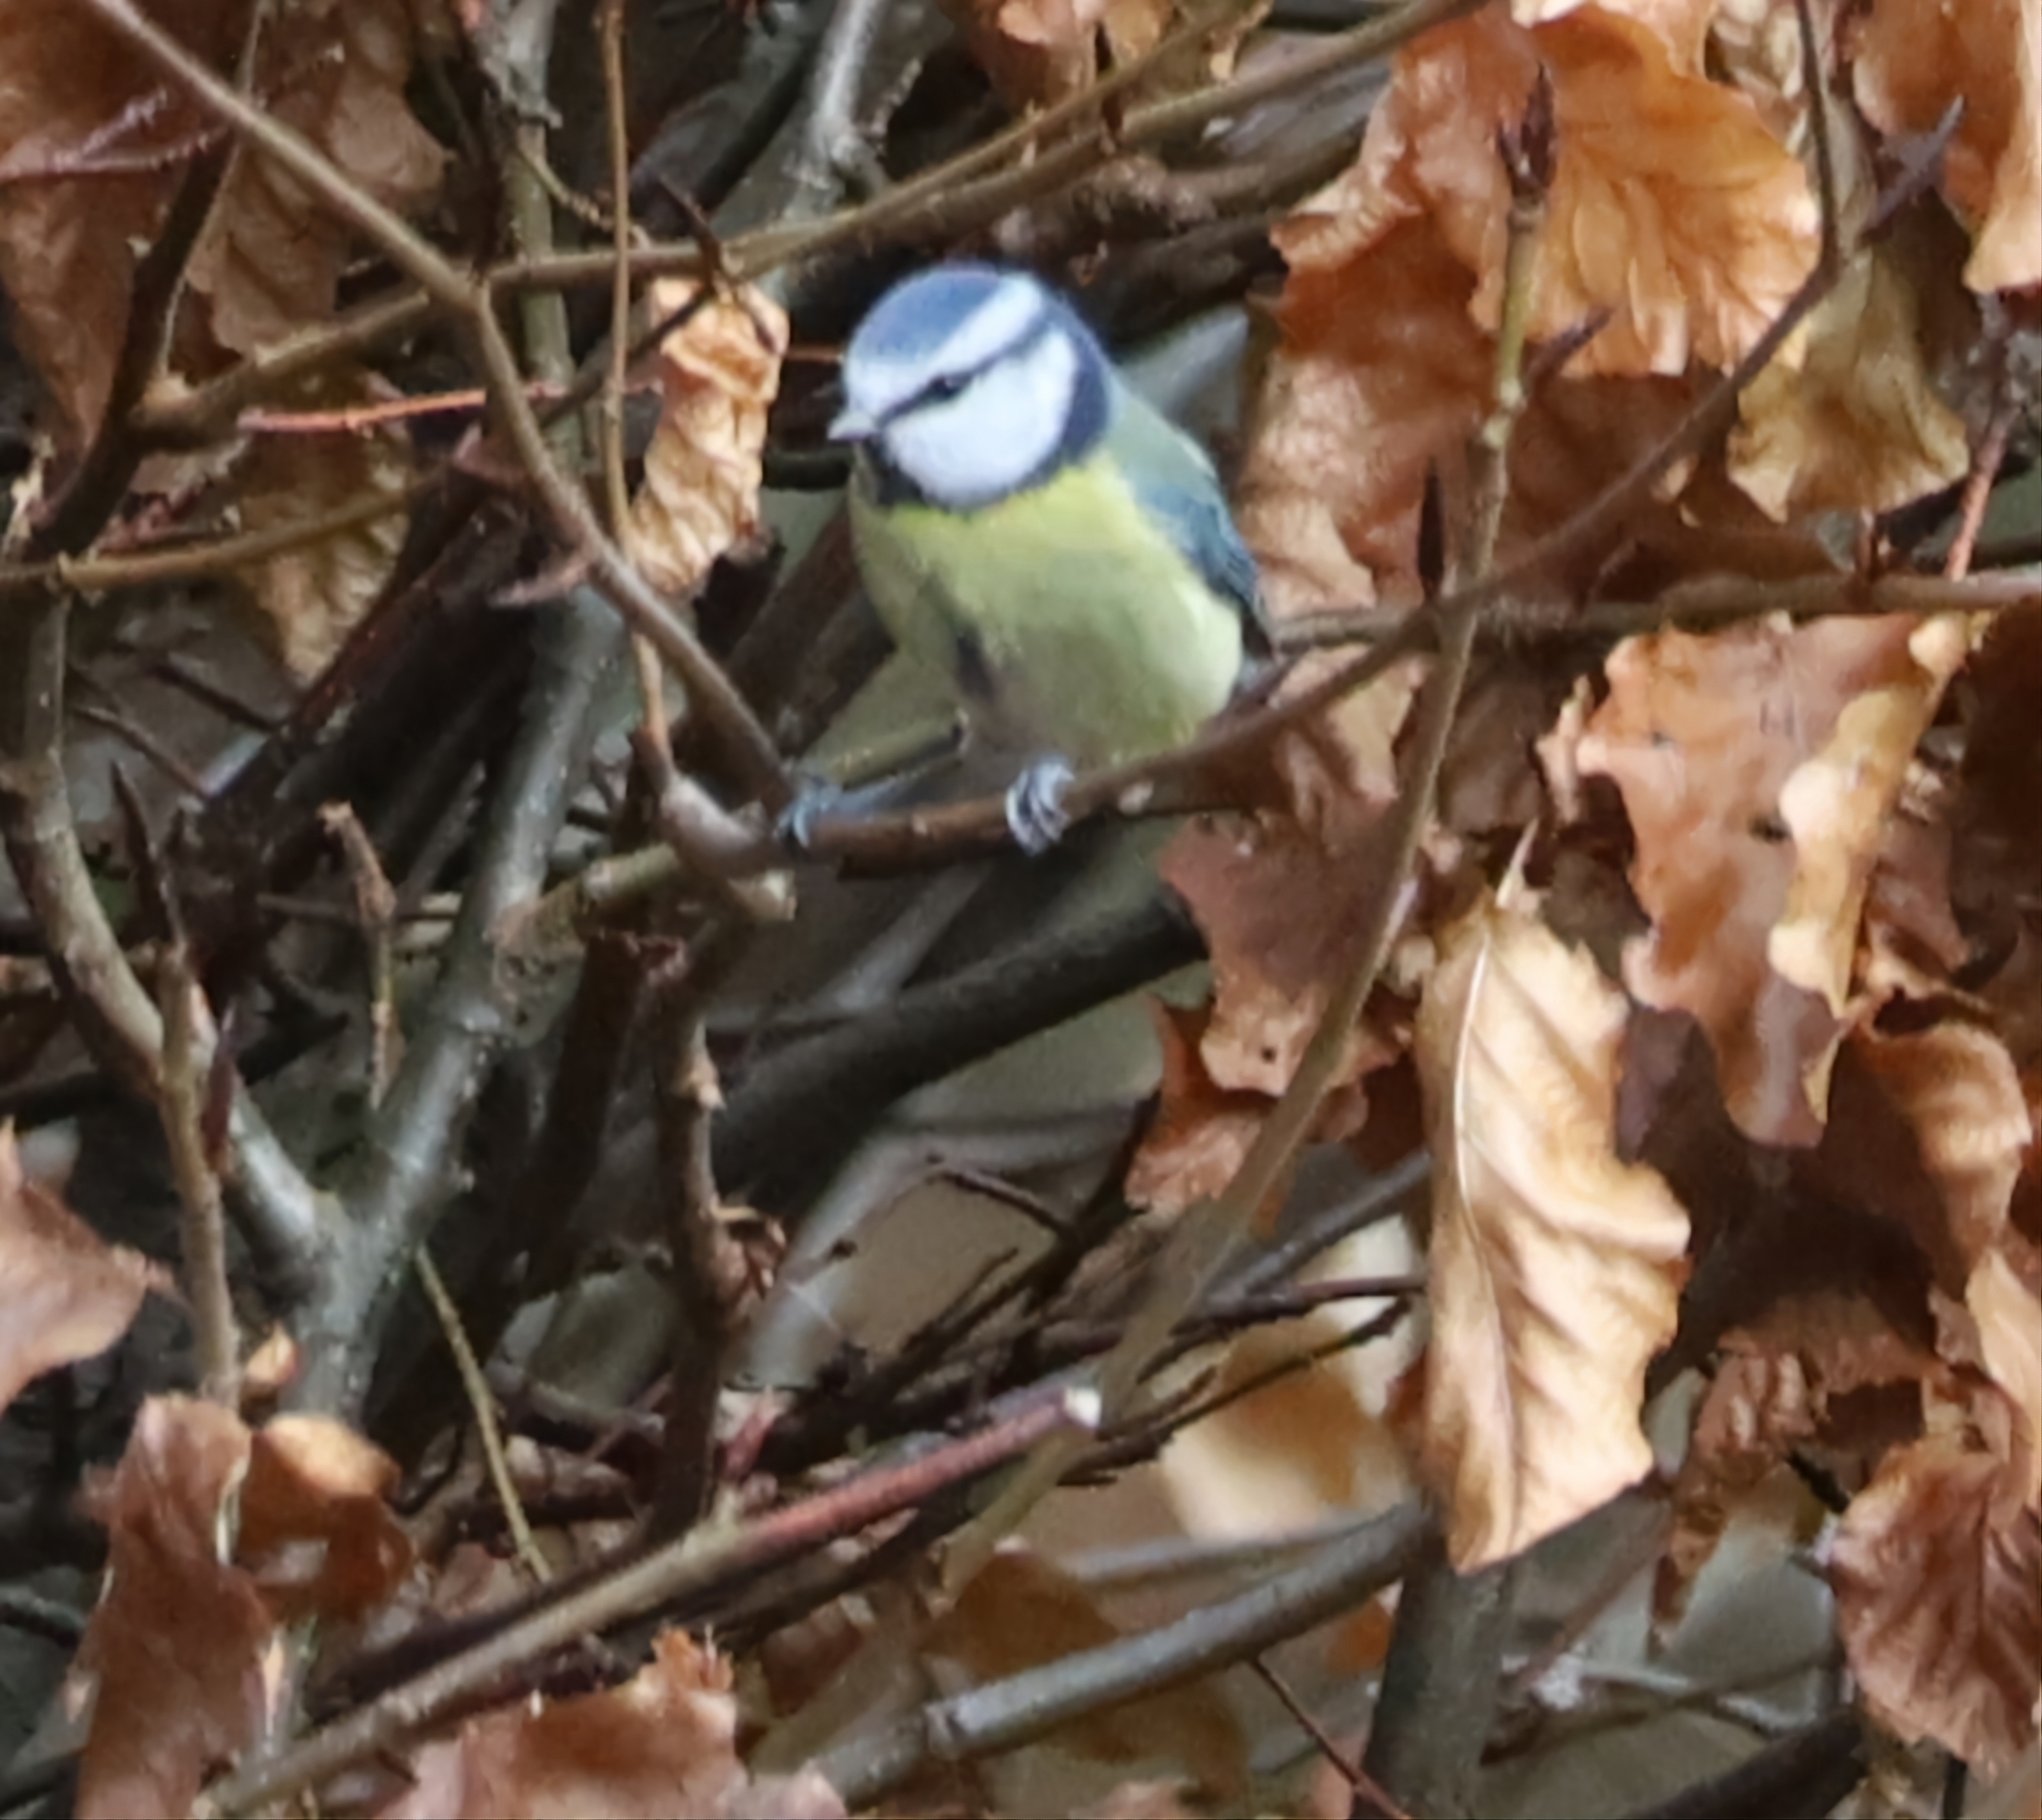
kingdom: Animalia
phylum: Chordata
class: Aves
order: Passeriformes
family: Paridae
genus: Cyanistes
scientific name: Cyanistes caeruleus
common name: Eurasian blue tit
